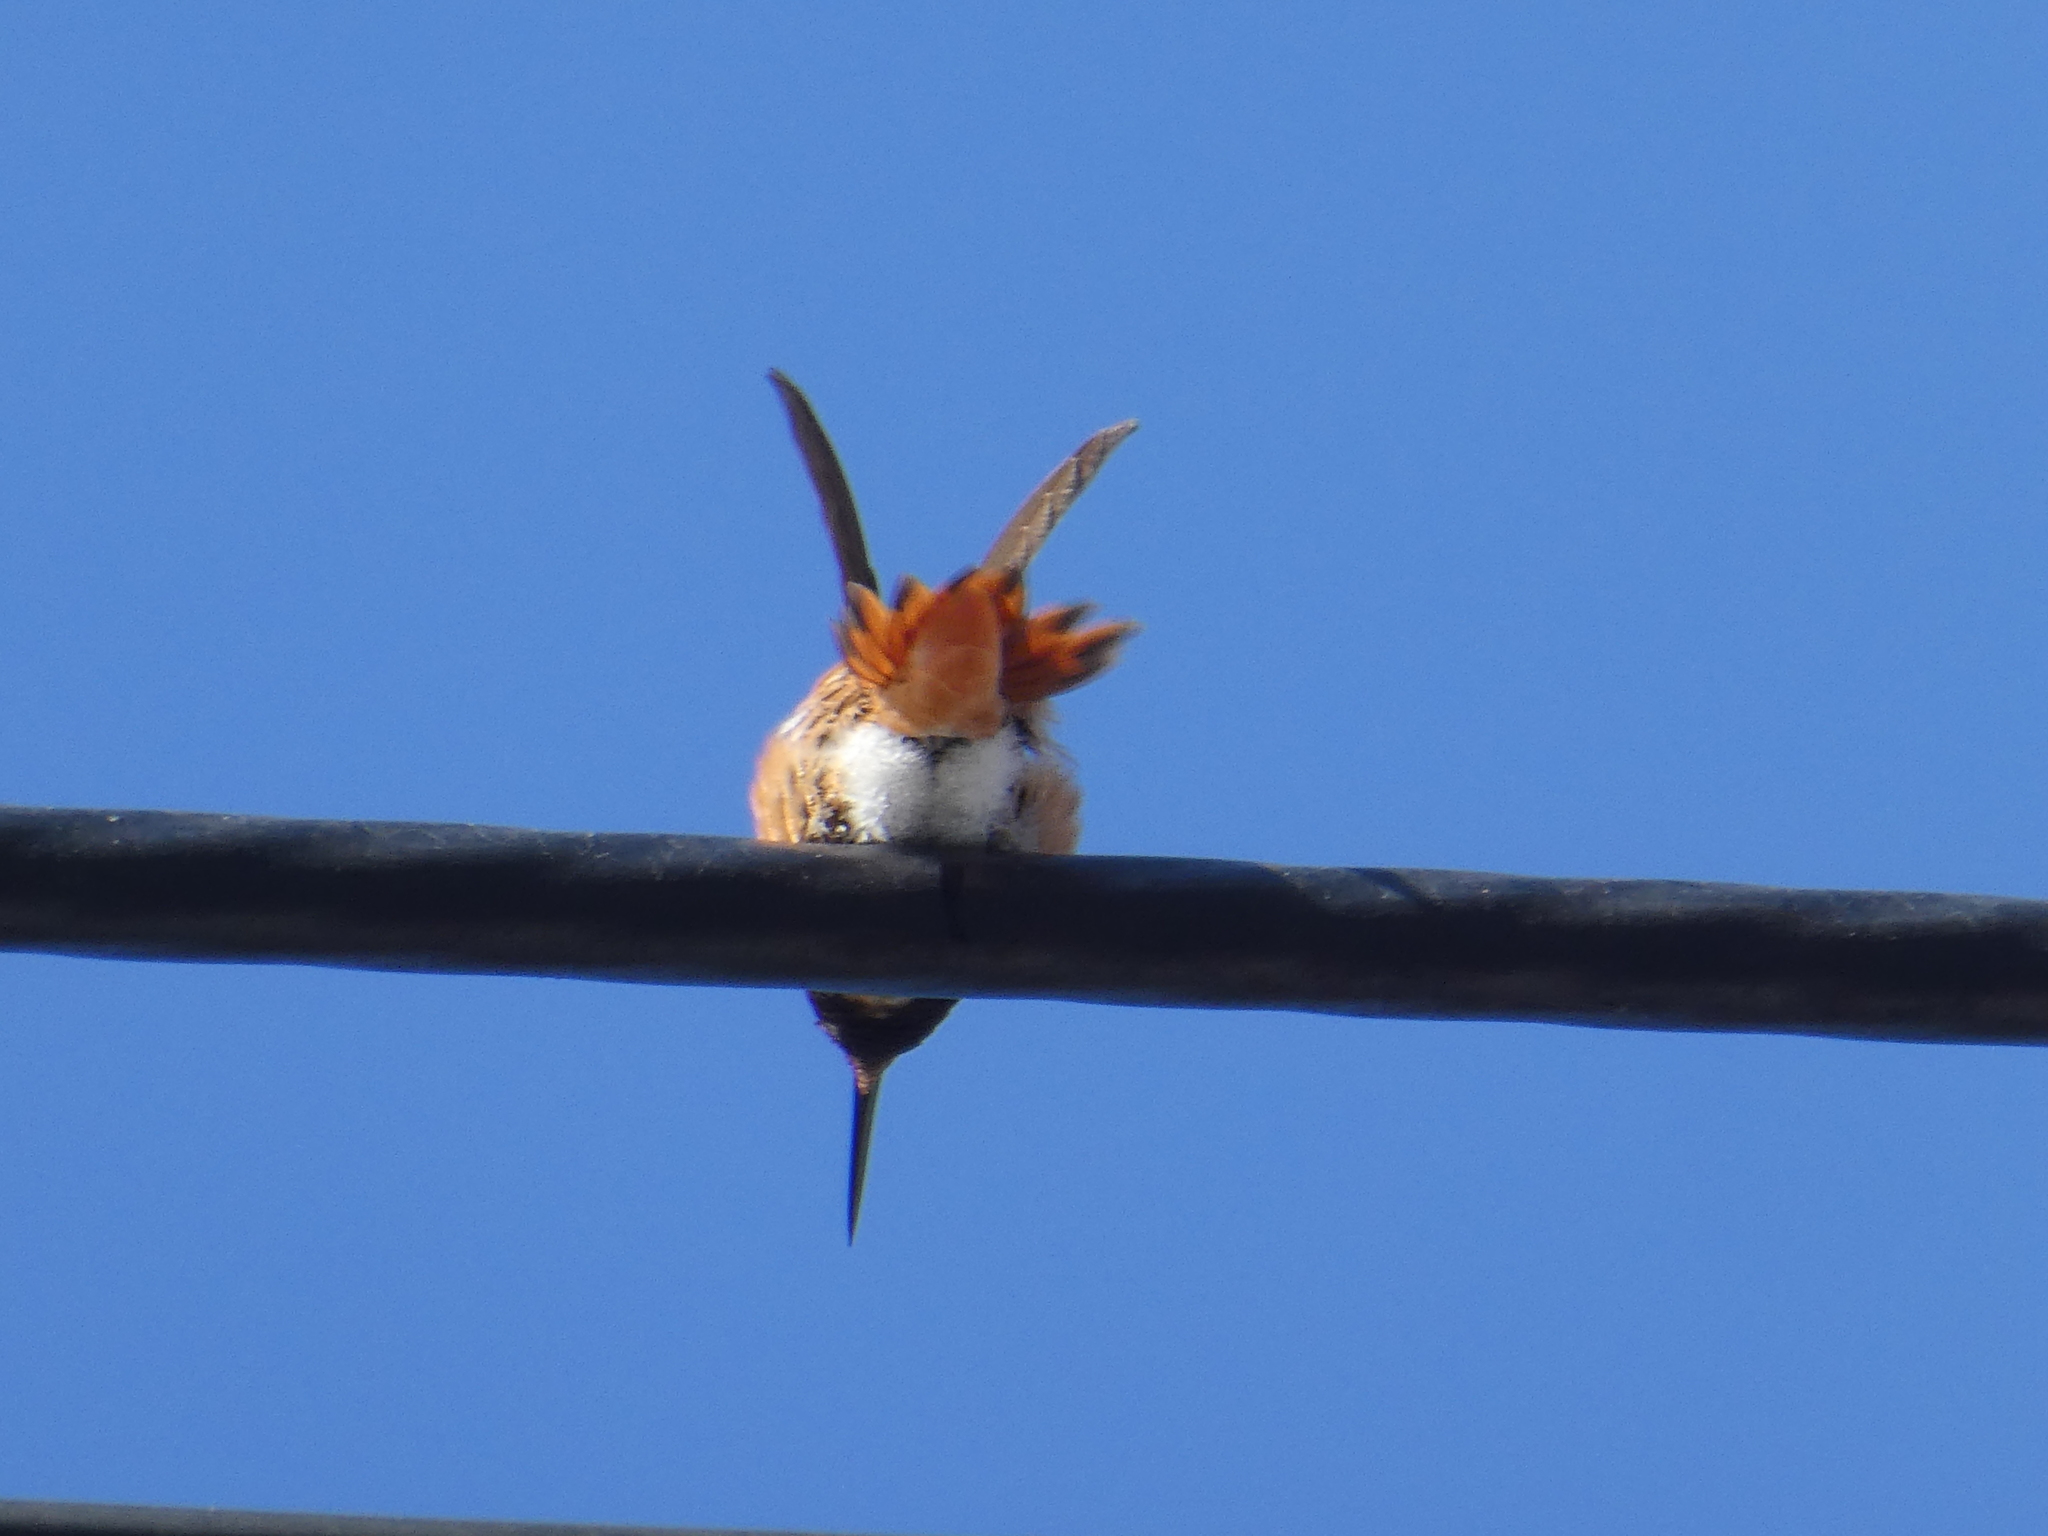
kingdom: Animalia
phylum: Chordata
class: Aves
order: Apodiformes
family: Trochilidae
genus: Selasphorus
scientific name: Selasphorus sasin
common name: Allen's hummingbird
